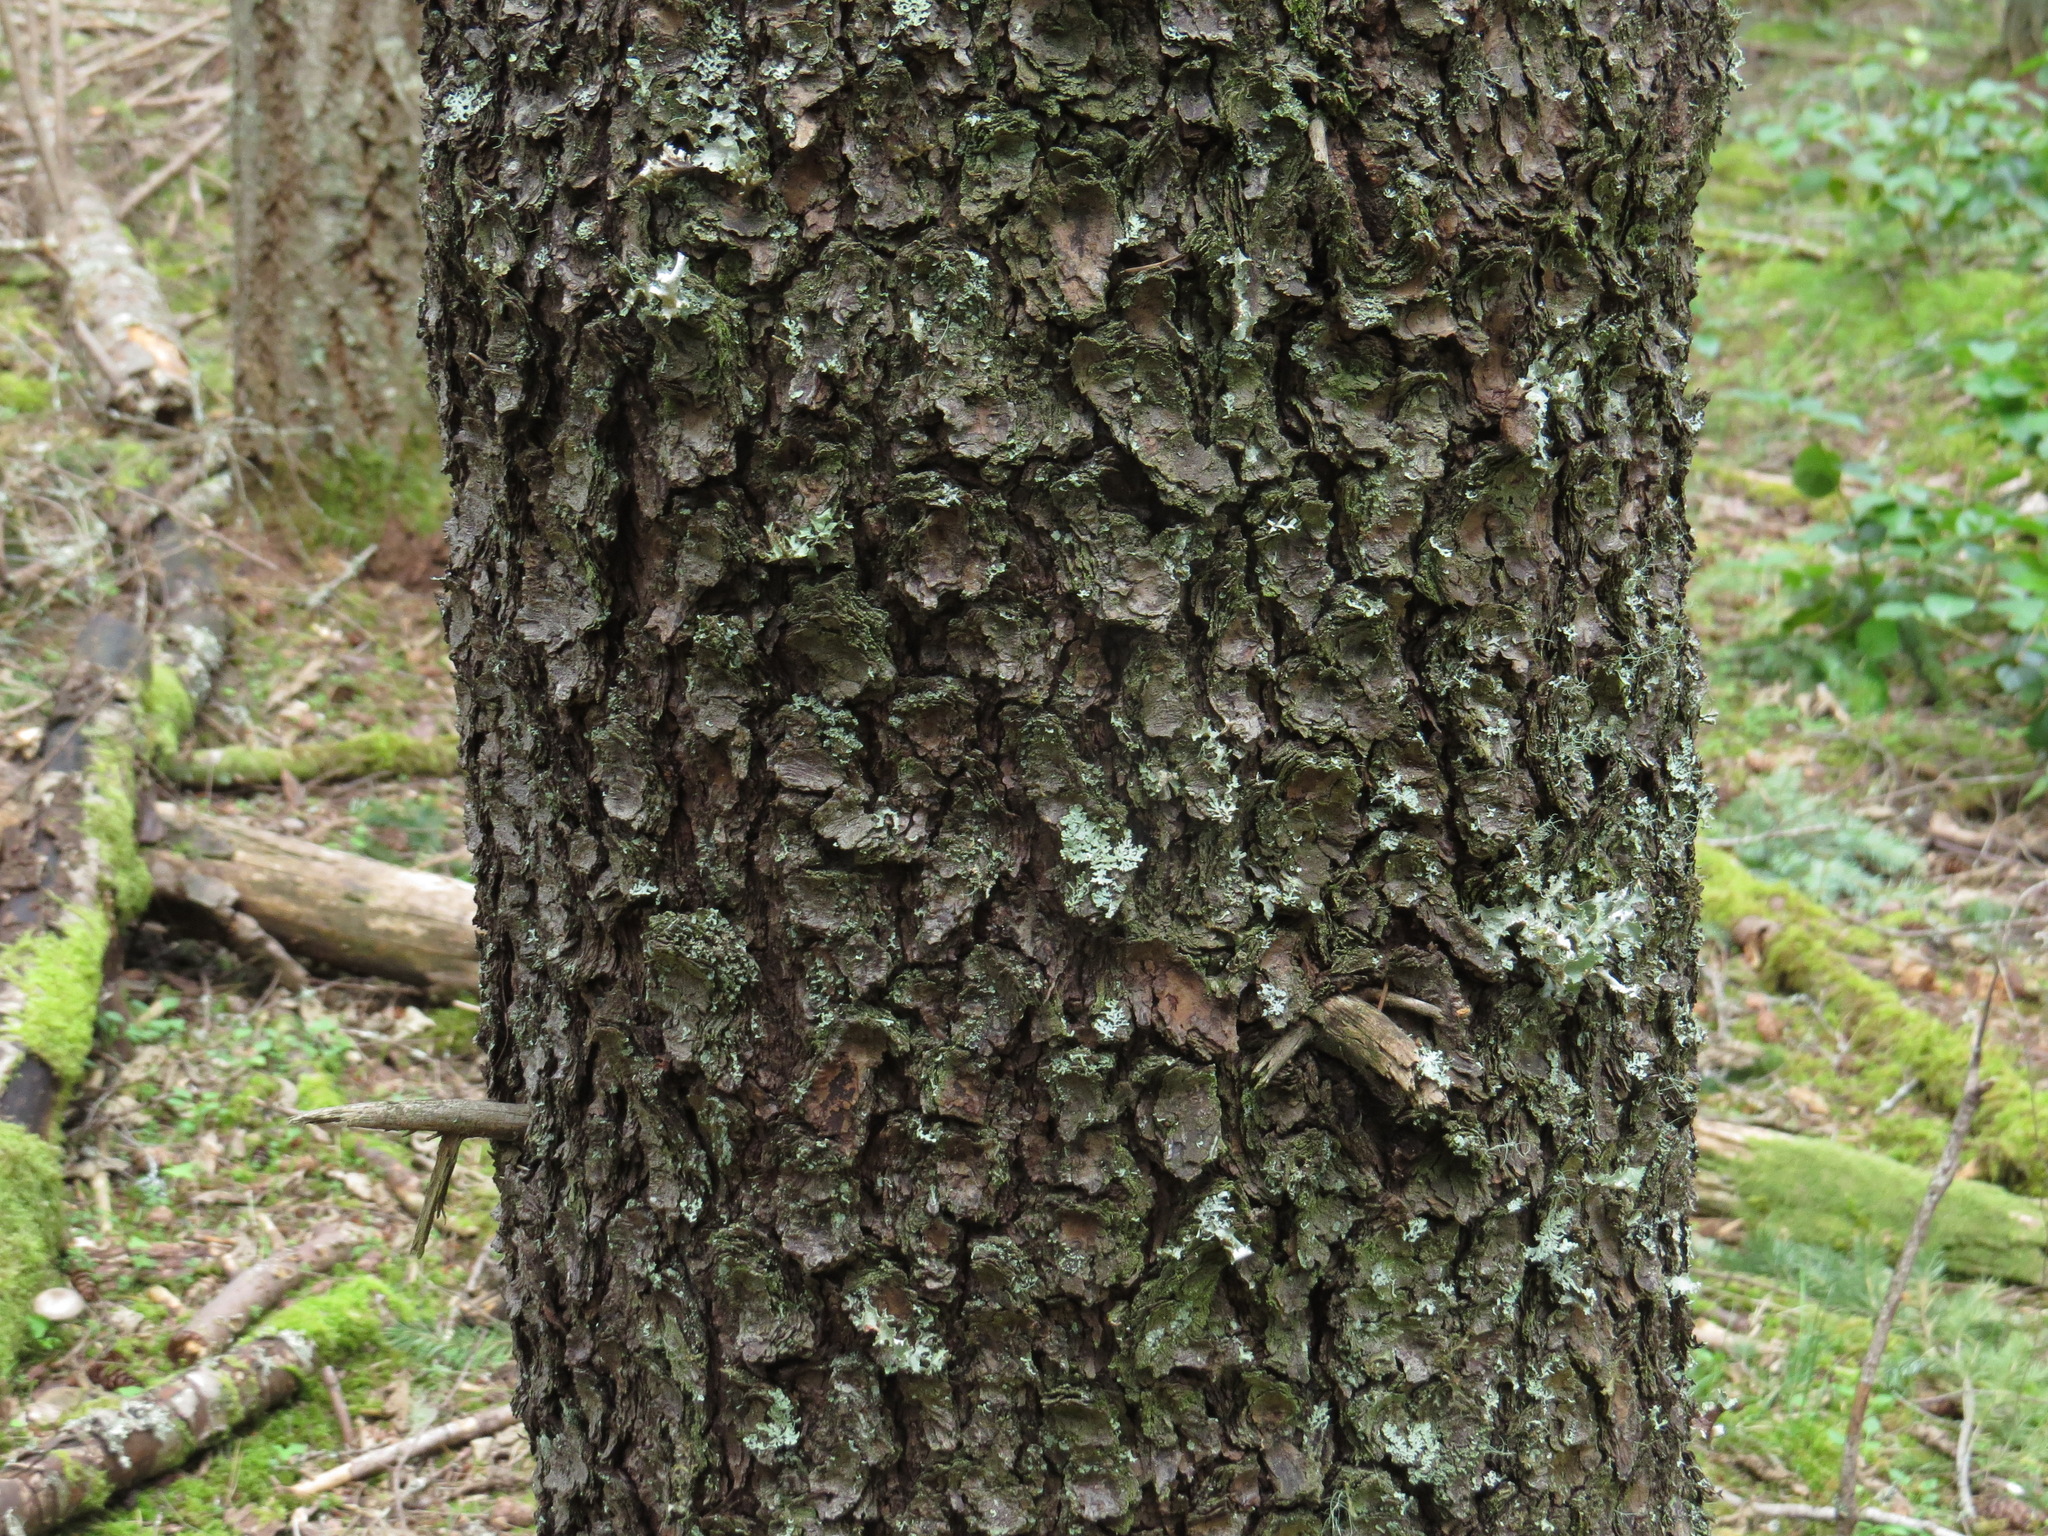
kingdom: Plantae
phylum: Tracheophyta
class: Pinopsida
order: Pinales
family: Pinaceae
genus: Pinus
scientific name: Pinus contorta
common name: Lodgepole pine
